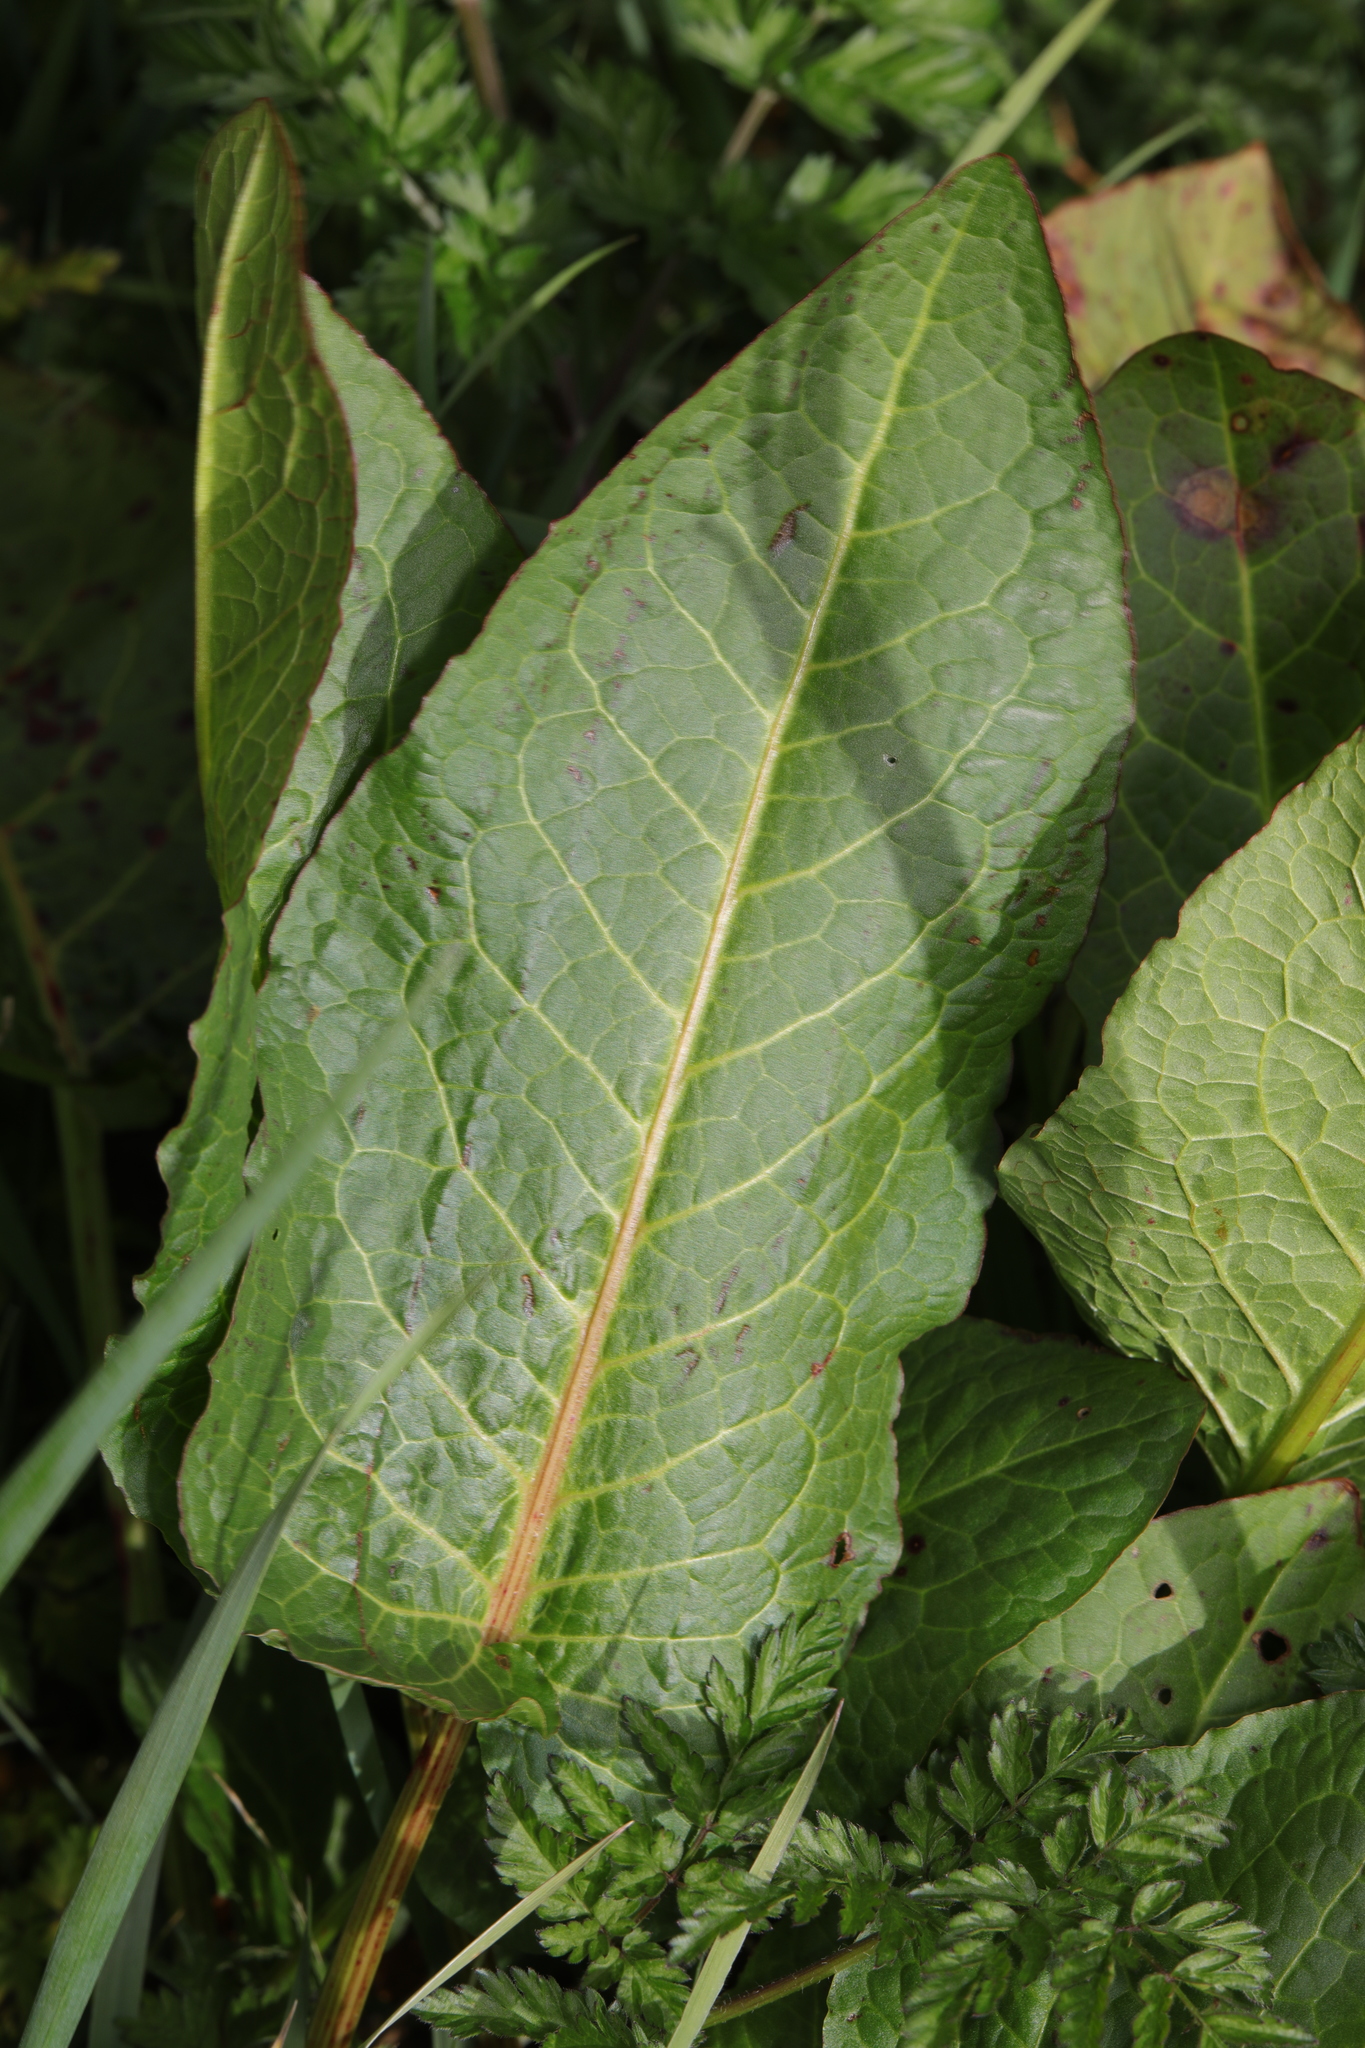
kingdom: Plantae
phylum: Tracheophyta
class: Magnoliopsida
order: Caryophyllales
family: Polygonaceae
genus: Rumex
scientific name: Rumex obtusifolius
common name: Bitter dock
